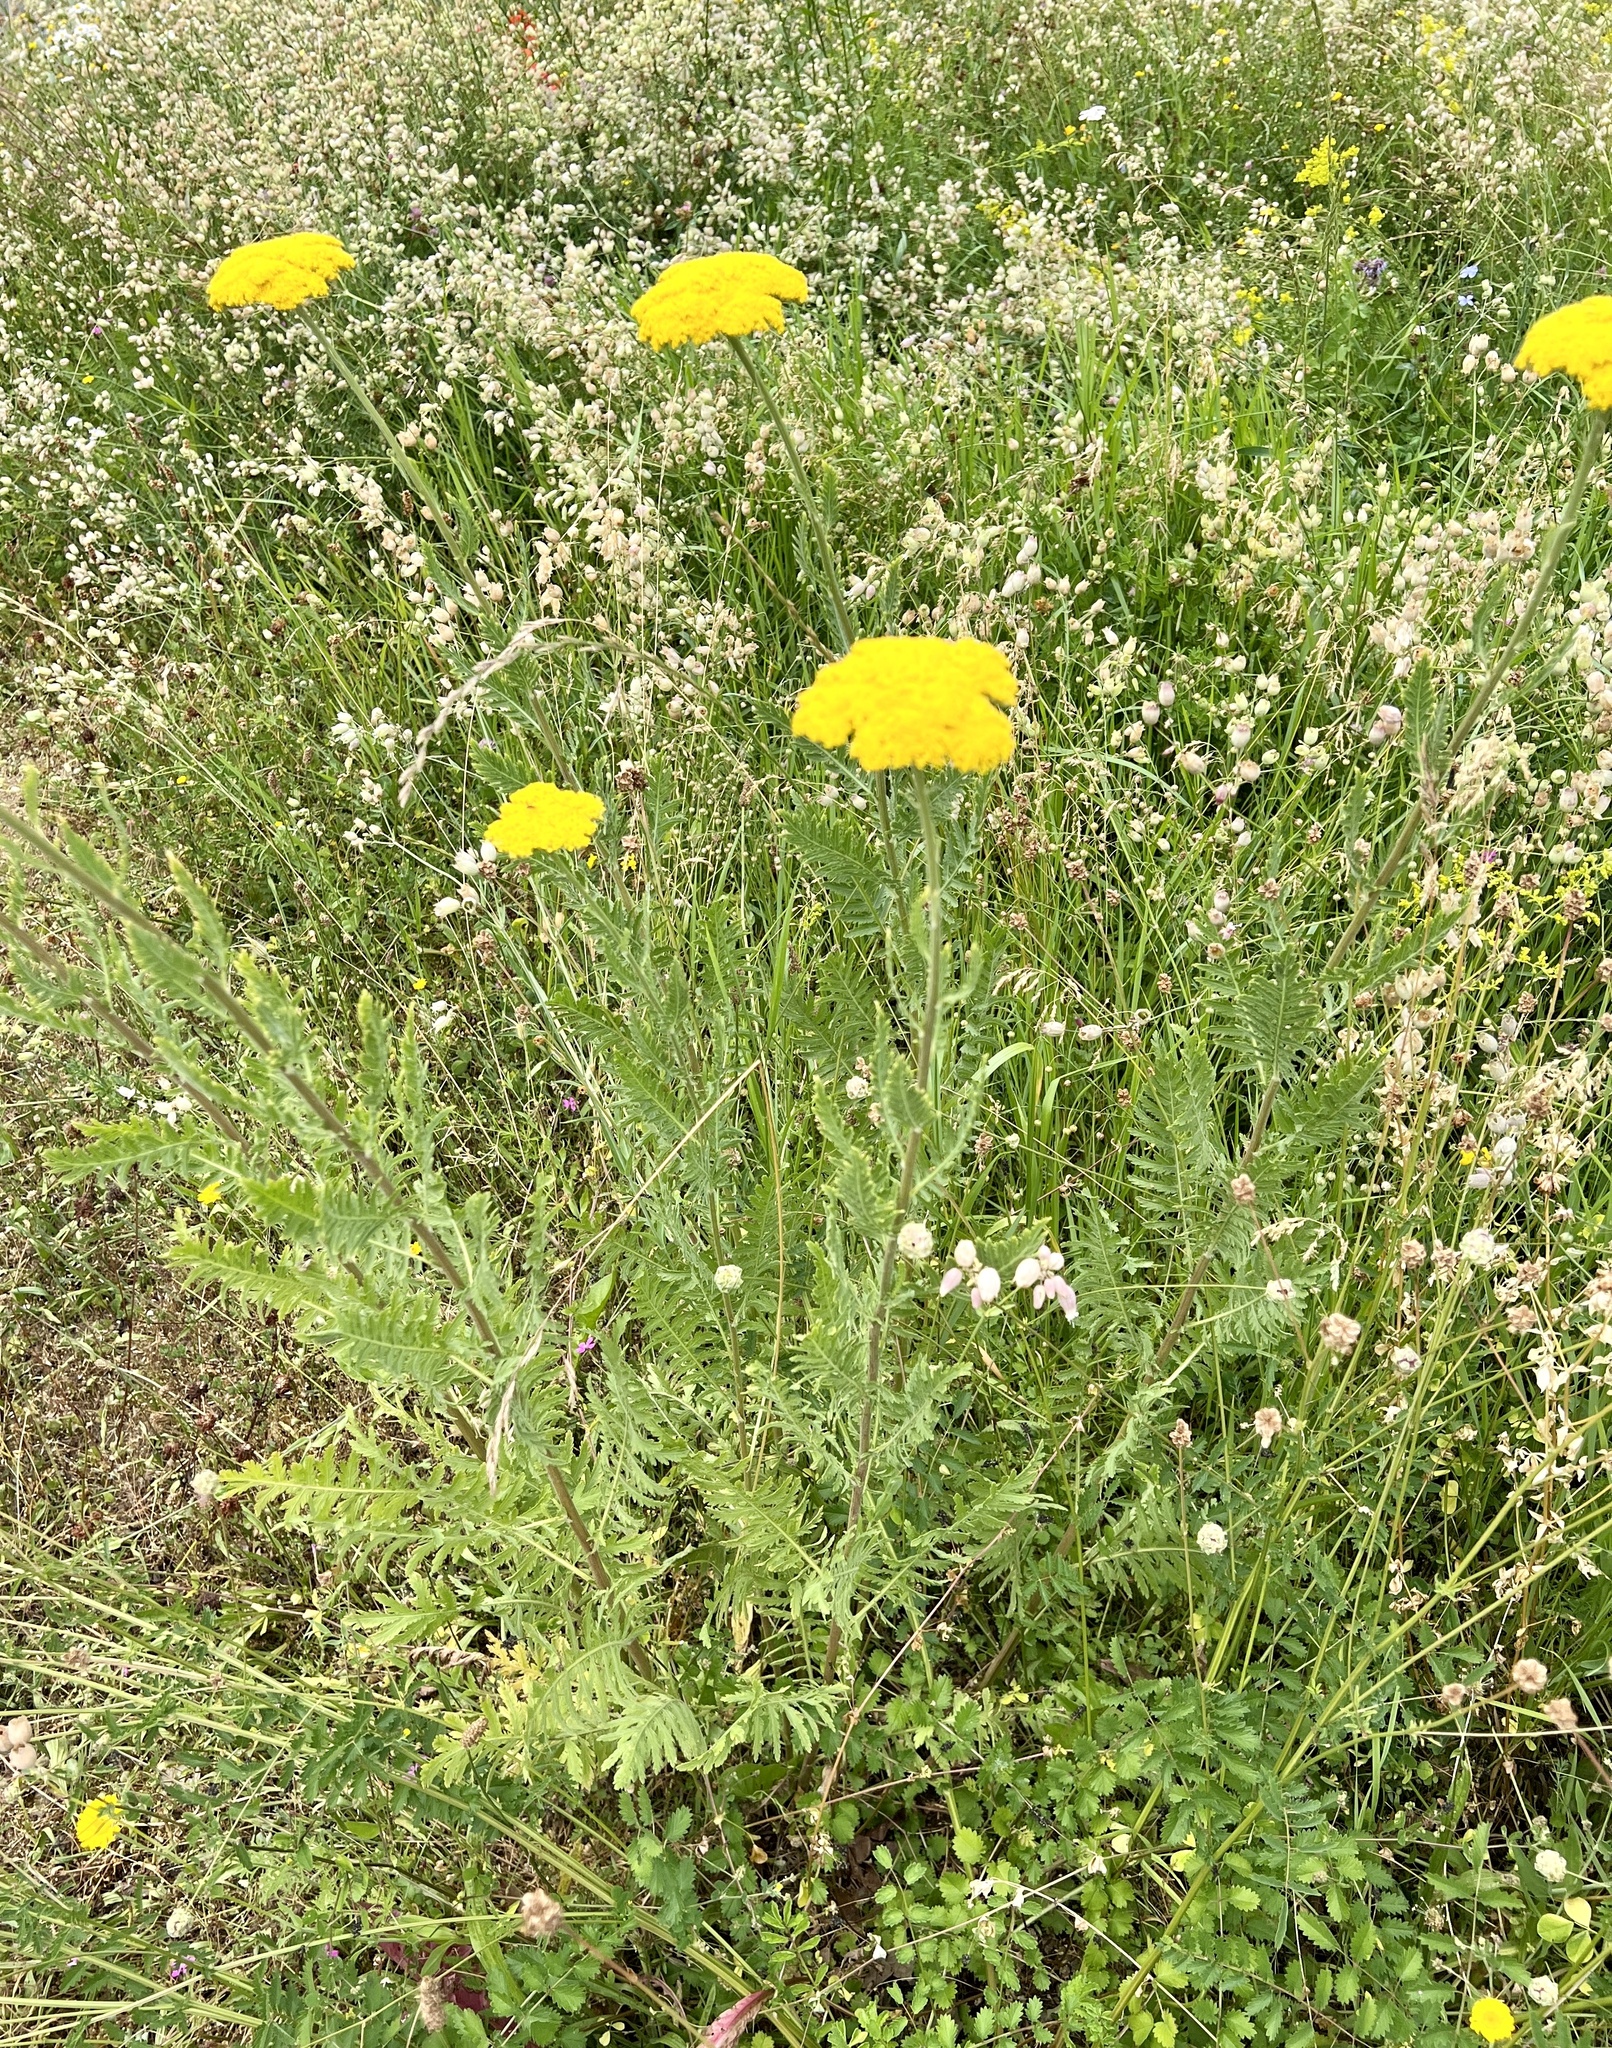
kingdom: Plantae
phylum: Tracheophyta
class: Magnoliopsida
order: Asterales
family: Asteraceae
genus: Achillea
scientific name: Achillea filipendulina
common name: Fernleaf yarrow
